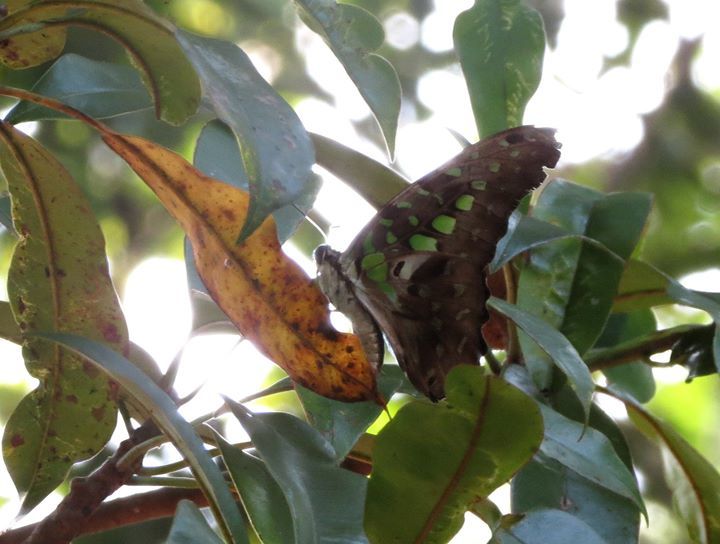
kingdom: Animalia
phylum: Arthropoda
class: Insecta
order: Lepidoptera
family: Papilionidae
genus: Graphium
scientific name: Graphium agamemnon
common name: Tailed jay
